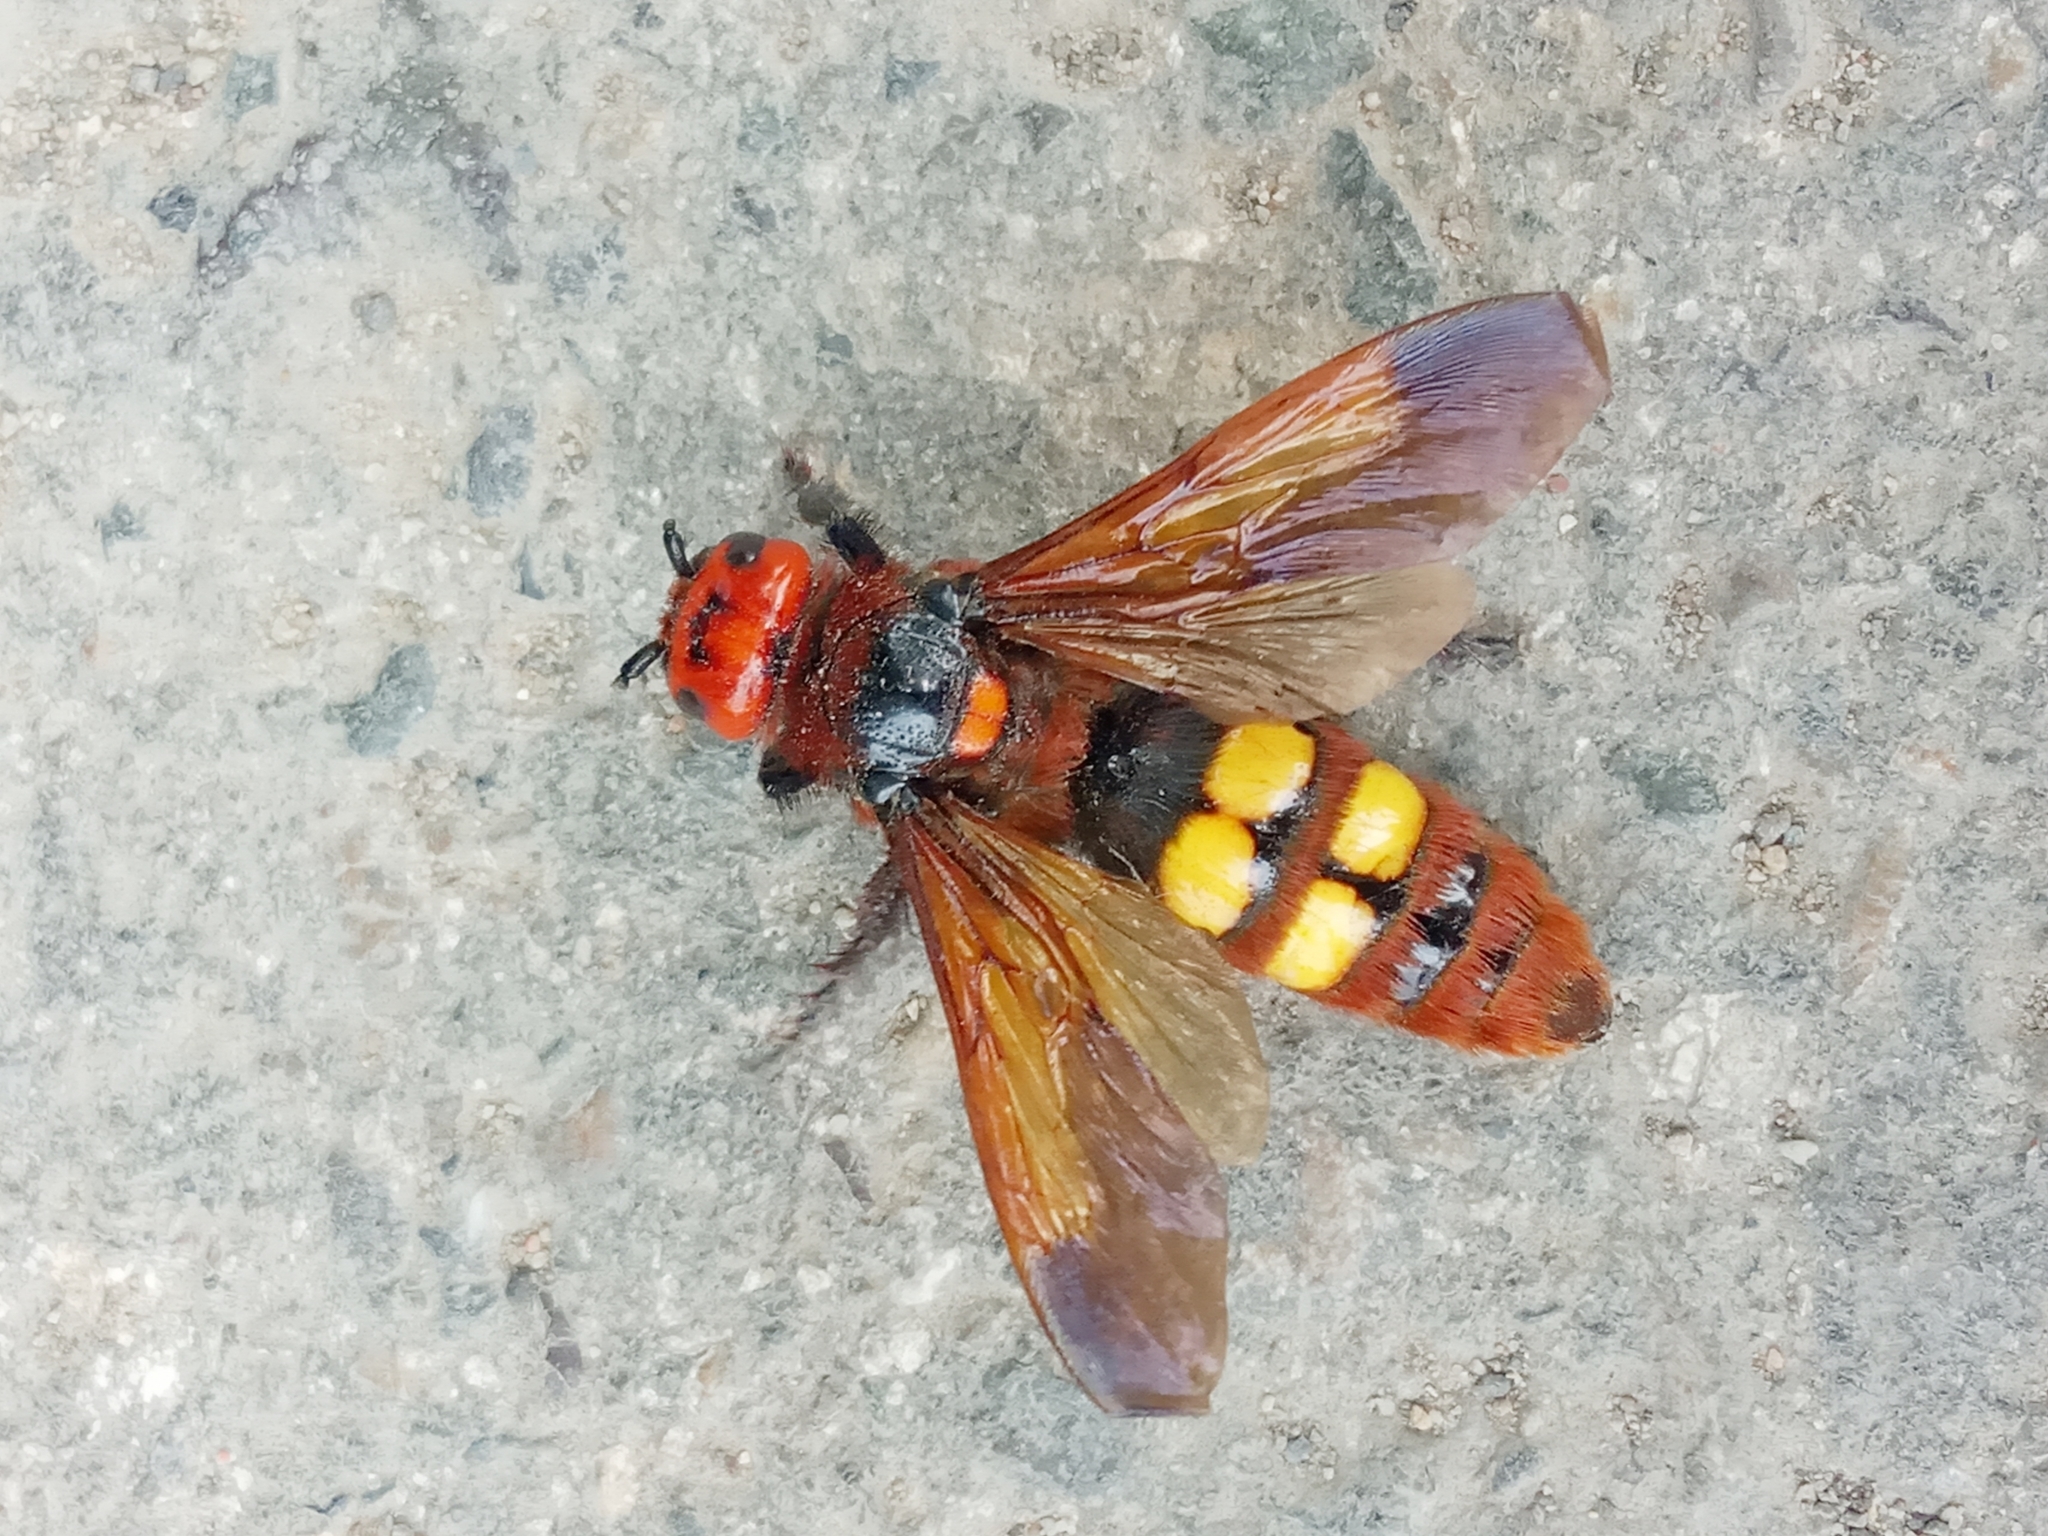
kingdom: Animalia
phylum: Arthropoda
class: Insecta
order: Hymenoptera
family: Scoliidae
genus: Megascolia
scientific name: Megascolia maculata
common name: Mammoth wasp
